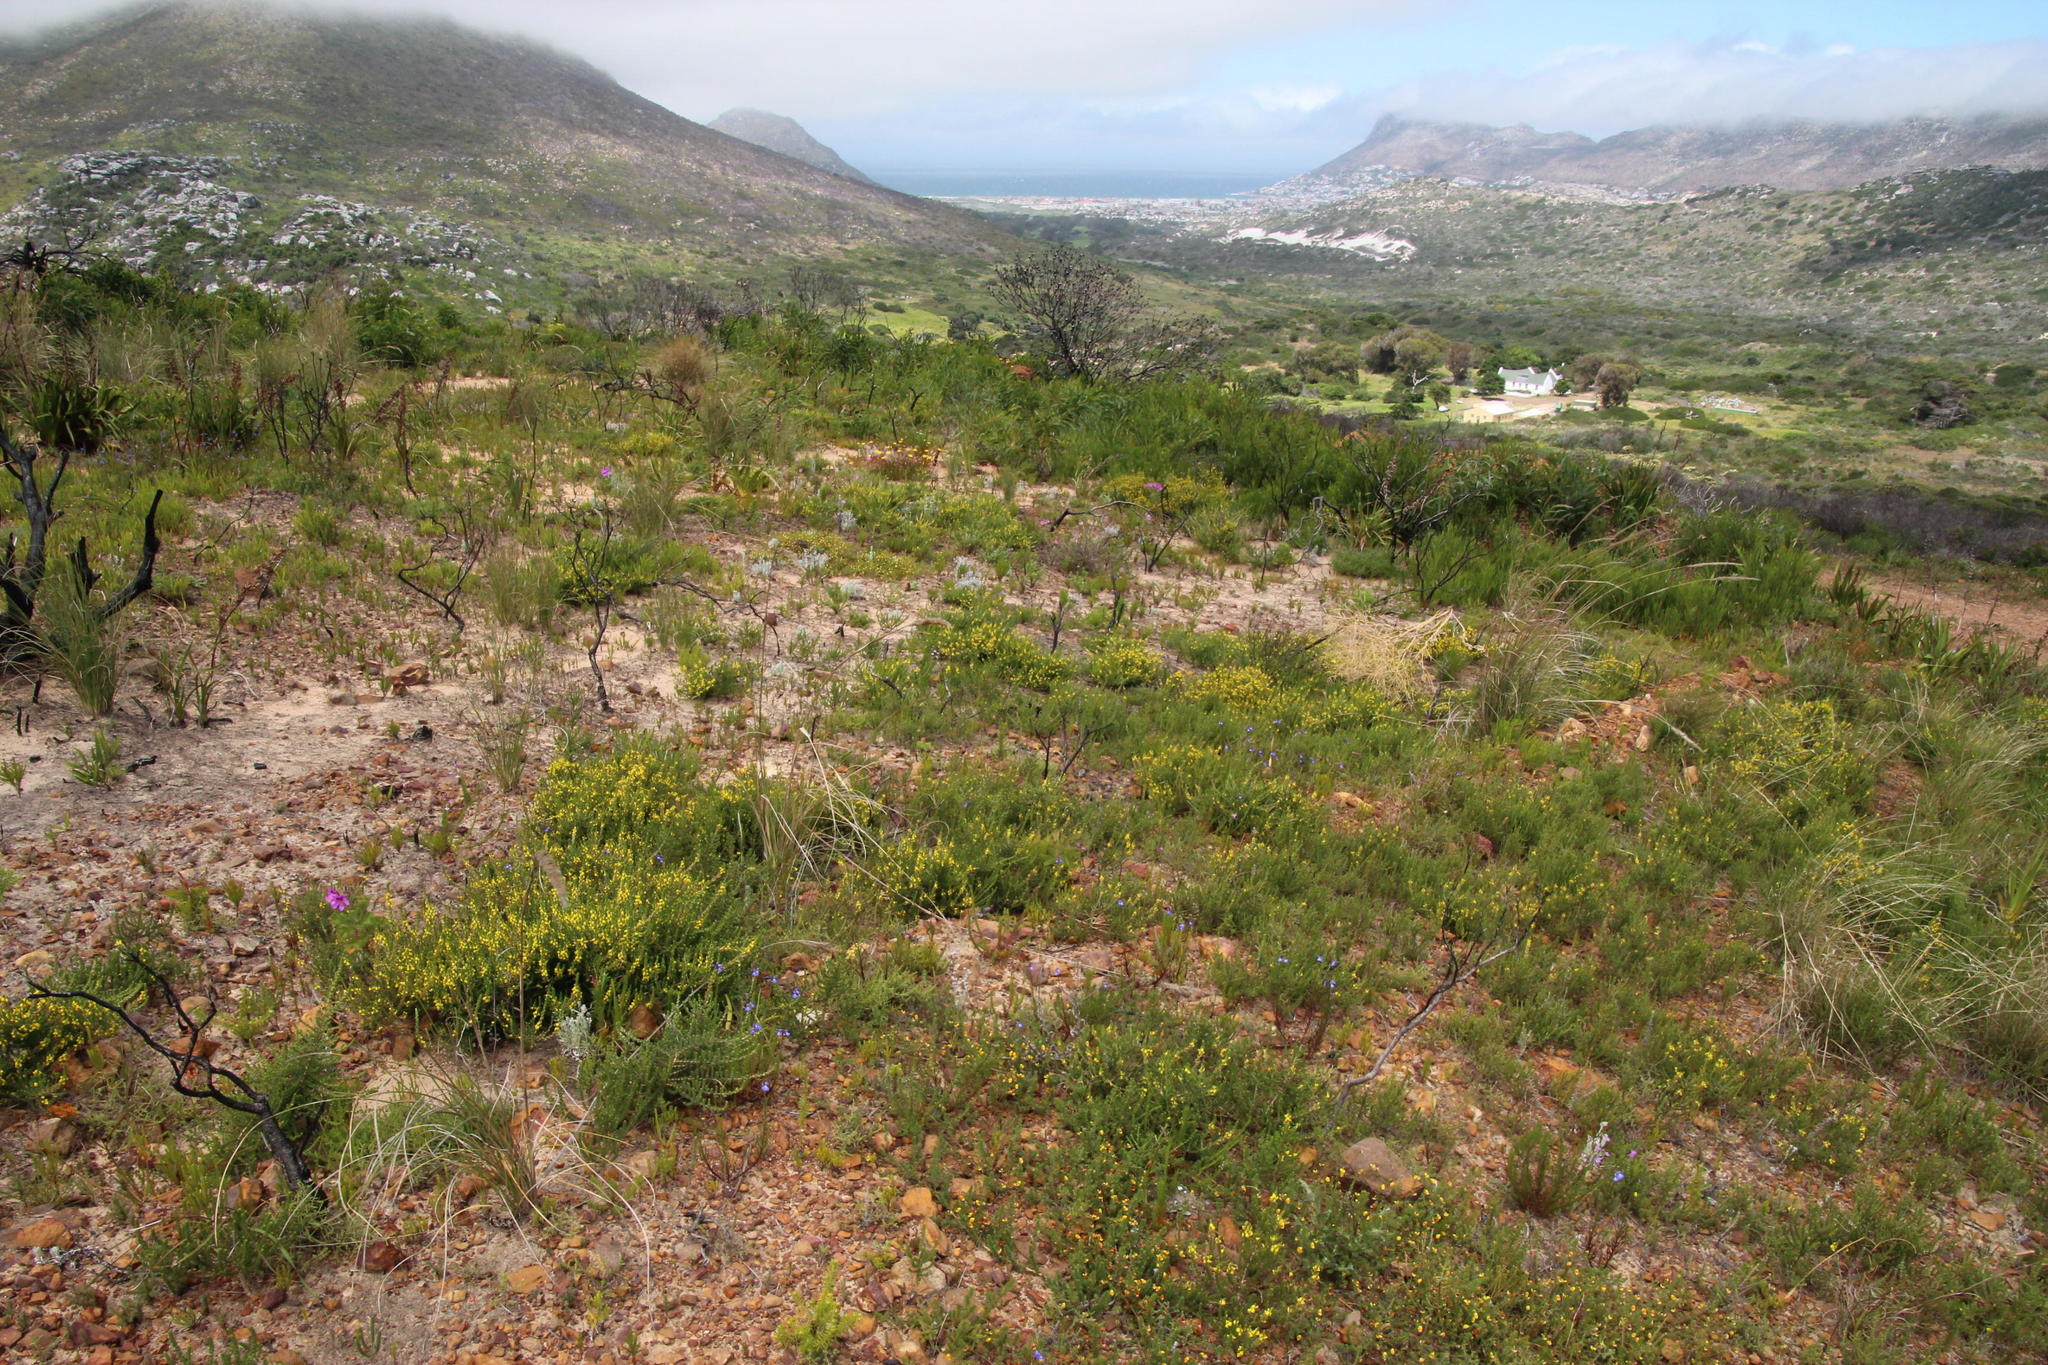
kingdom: Plantae
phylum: Tracheophyta
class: Magnoliopsida
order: Fabales
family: Fabaceae
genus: Aspalathus
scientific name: Aspalathus ericifolia
